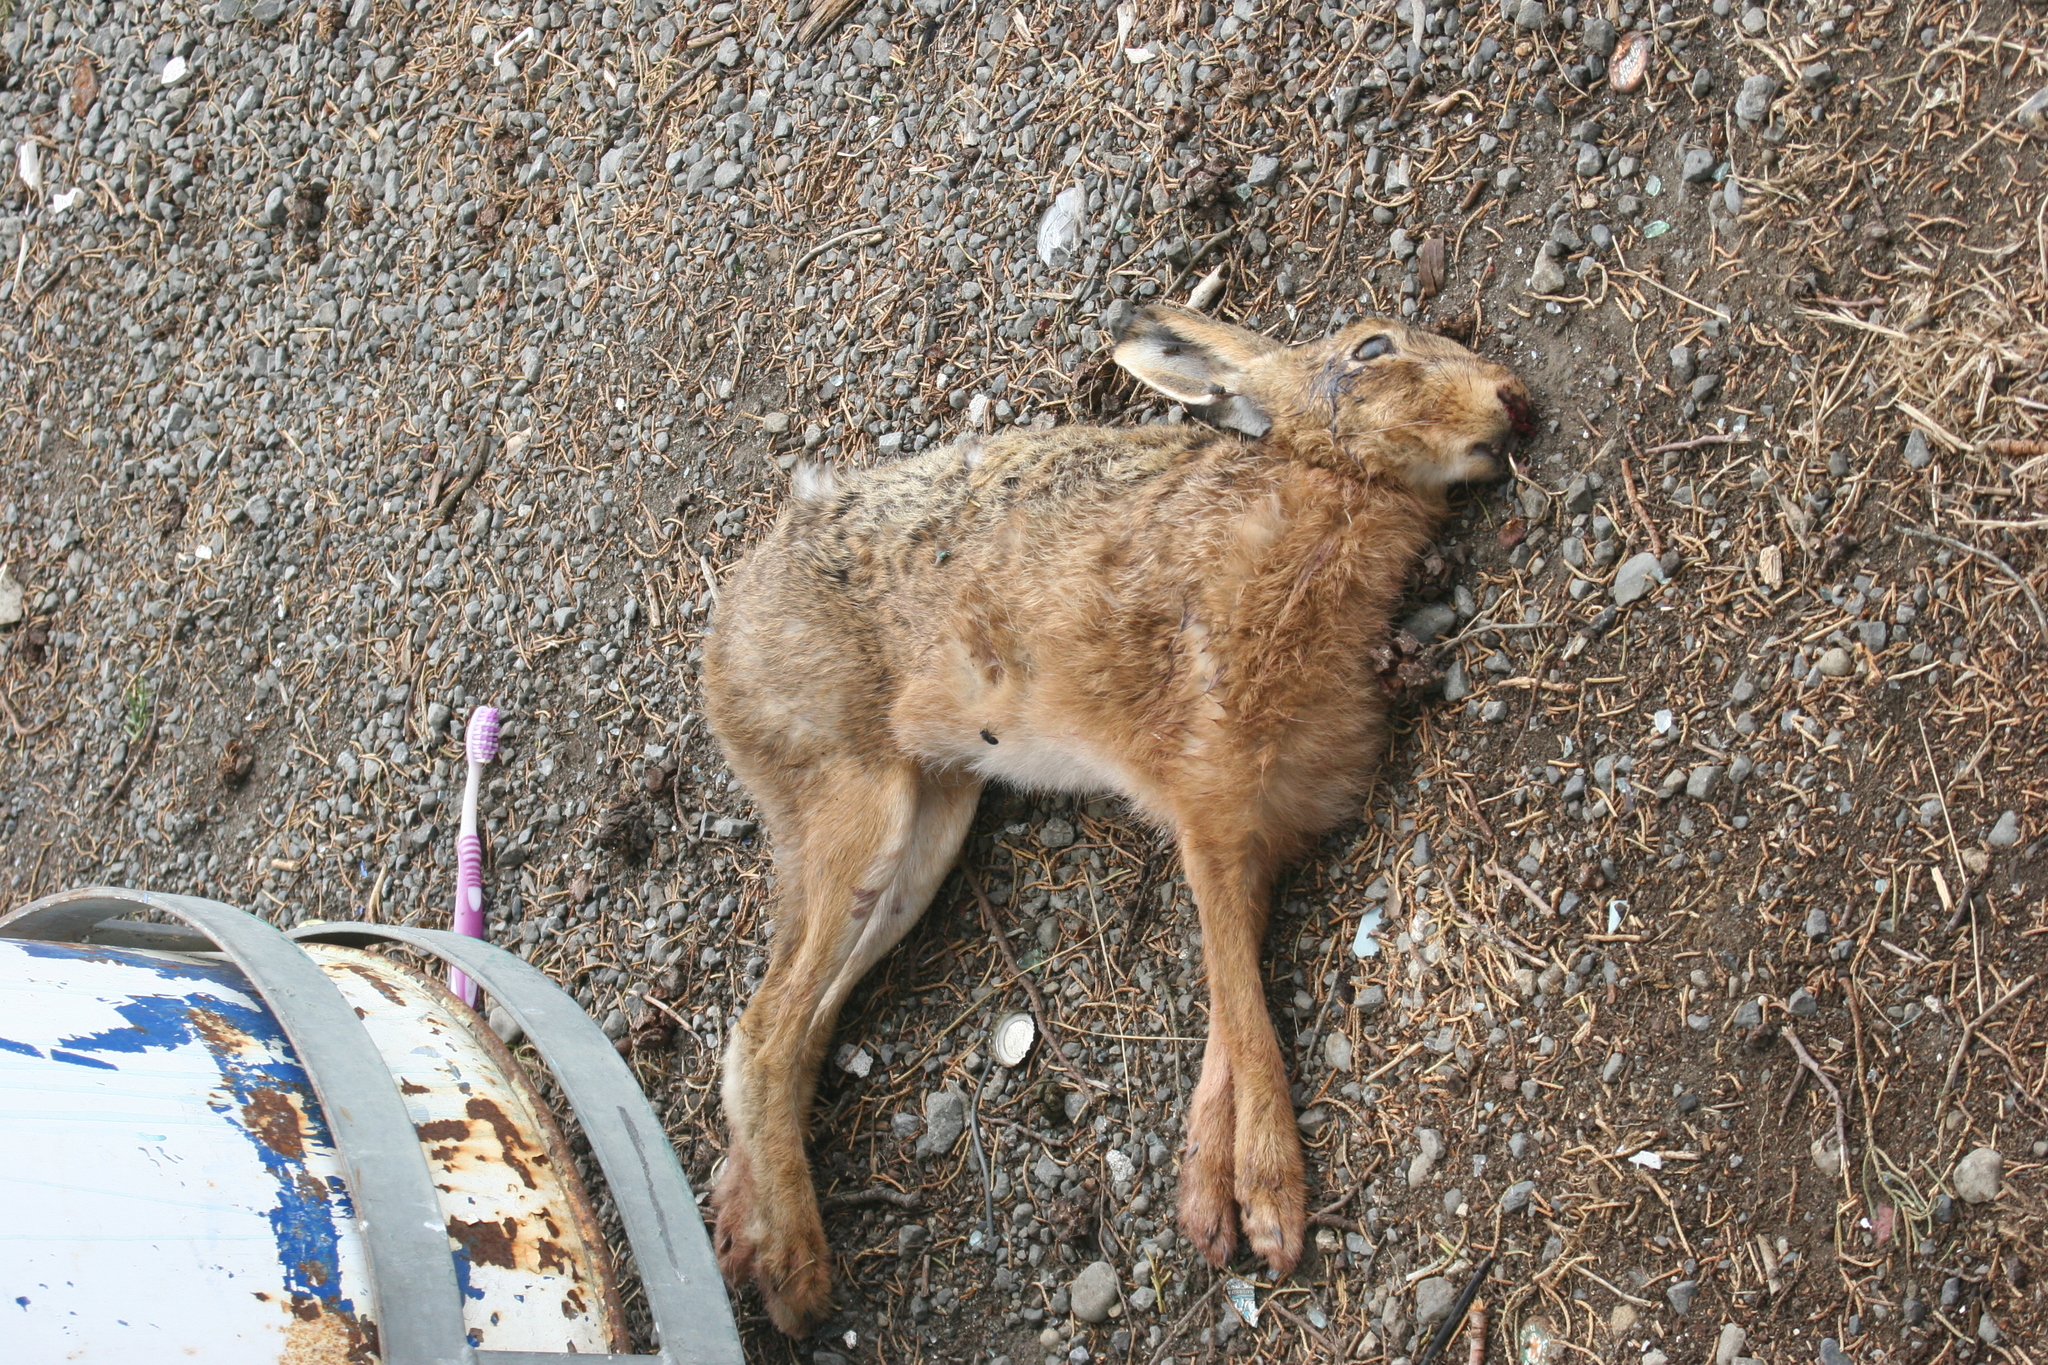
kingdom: Animalia
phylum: Chordata
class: Mammalia
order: Lagomorpha
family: Leporidae
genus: Lepus
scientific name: Lepus europaeus
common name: European hare
